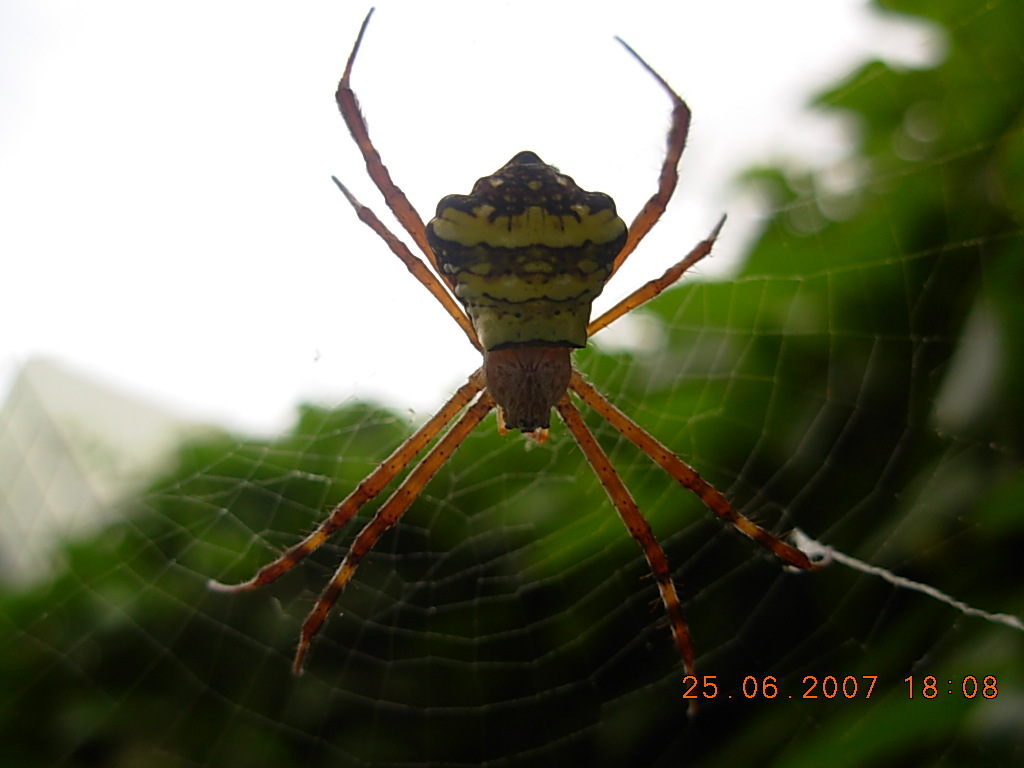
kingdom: Animalia
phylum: Arthropoda
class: Arachnida
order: Araneae
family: Araneidae
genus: Argiope
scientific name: Argiope anasuja
